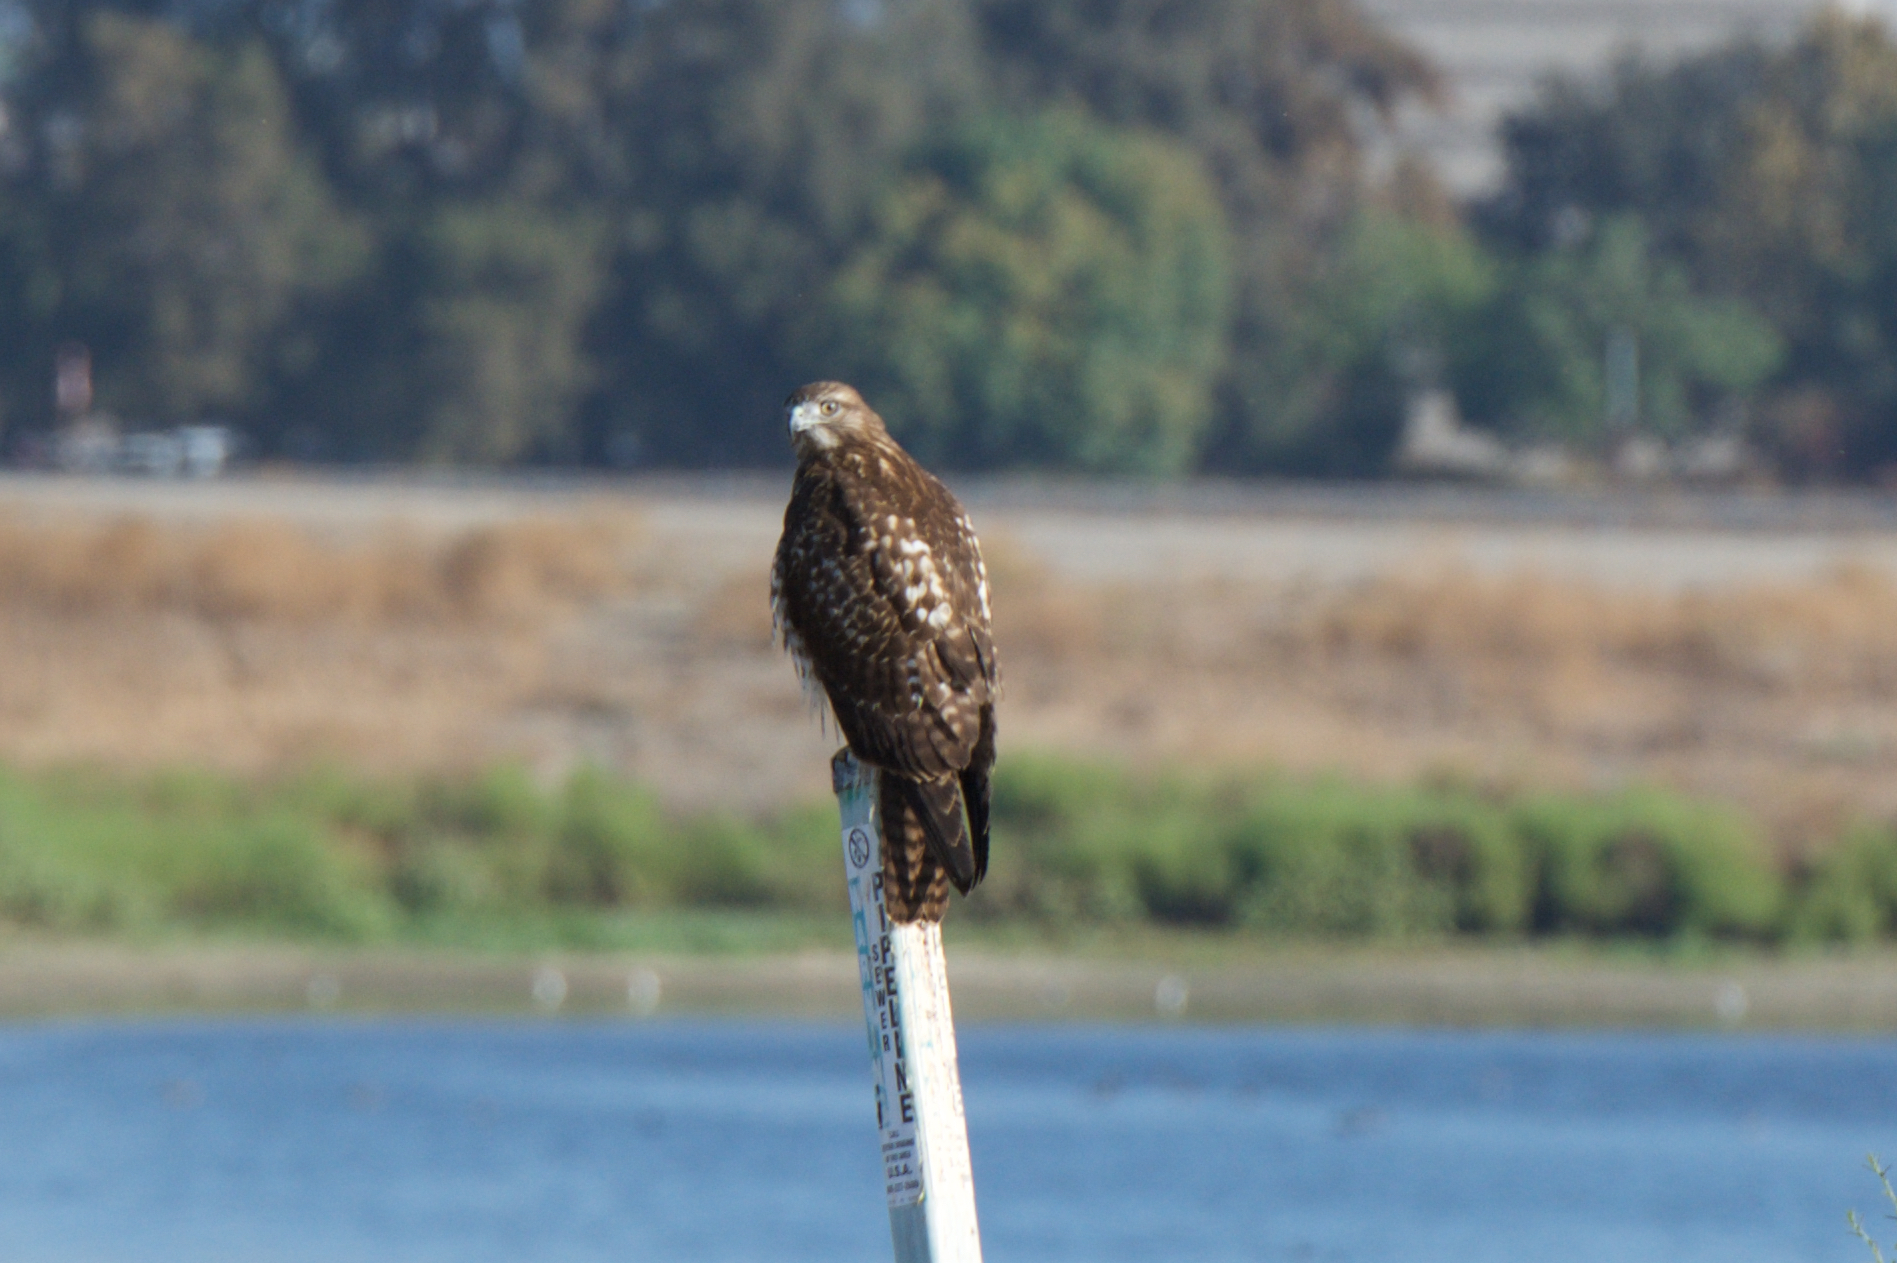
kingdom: Animalia
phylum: Chordata
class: Aves
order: Accipitriformes
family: Accipitridae
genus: Buteo
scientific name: Buteo jamaicensis
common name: Red-tailed hawk
